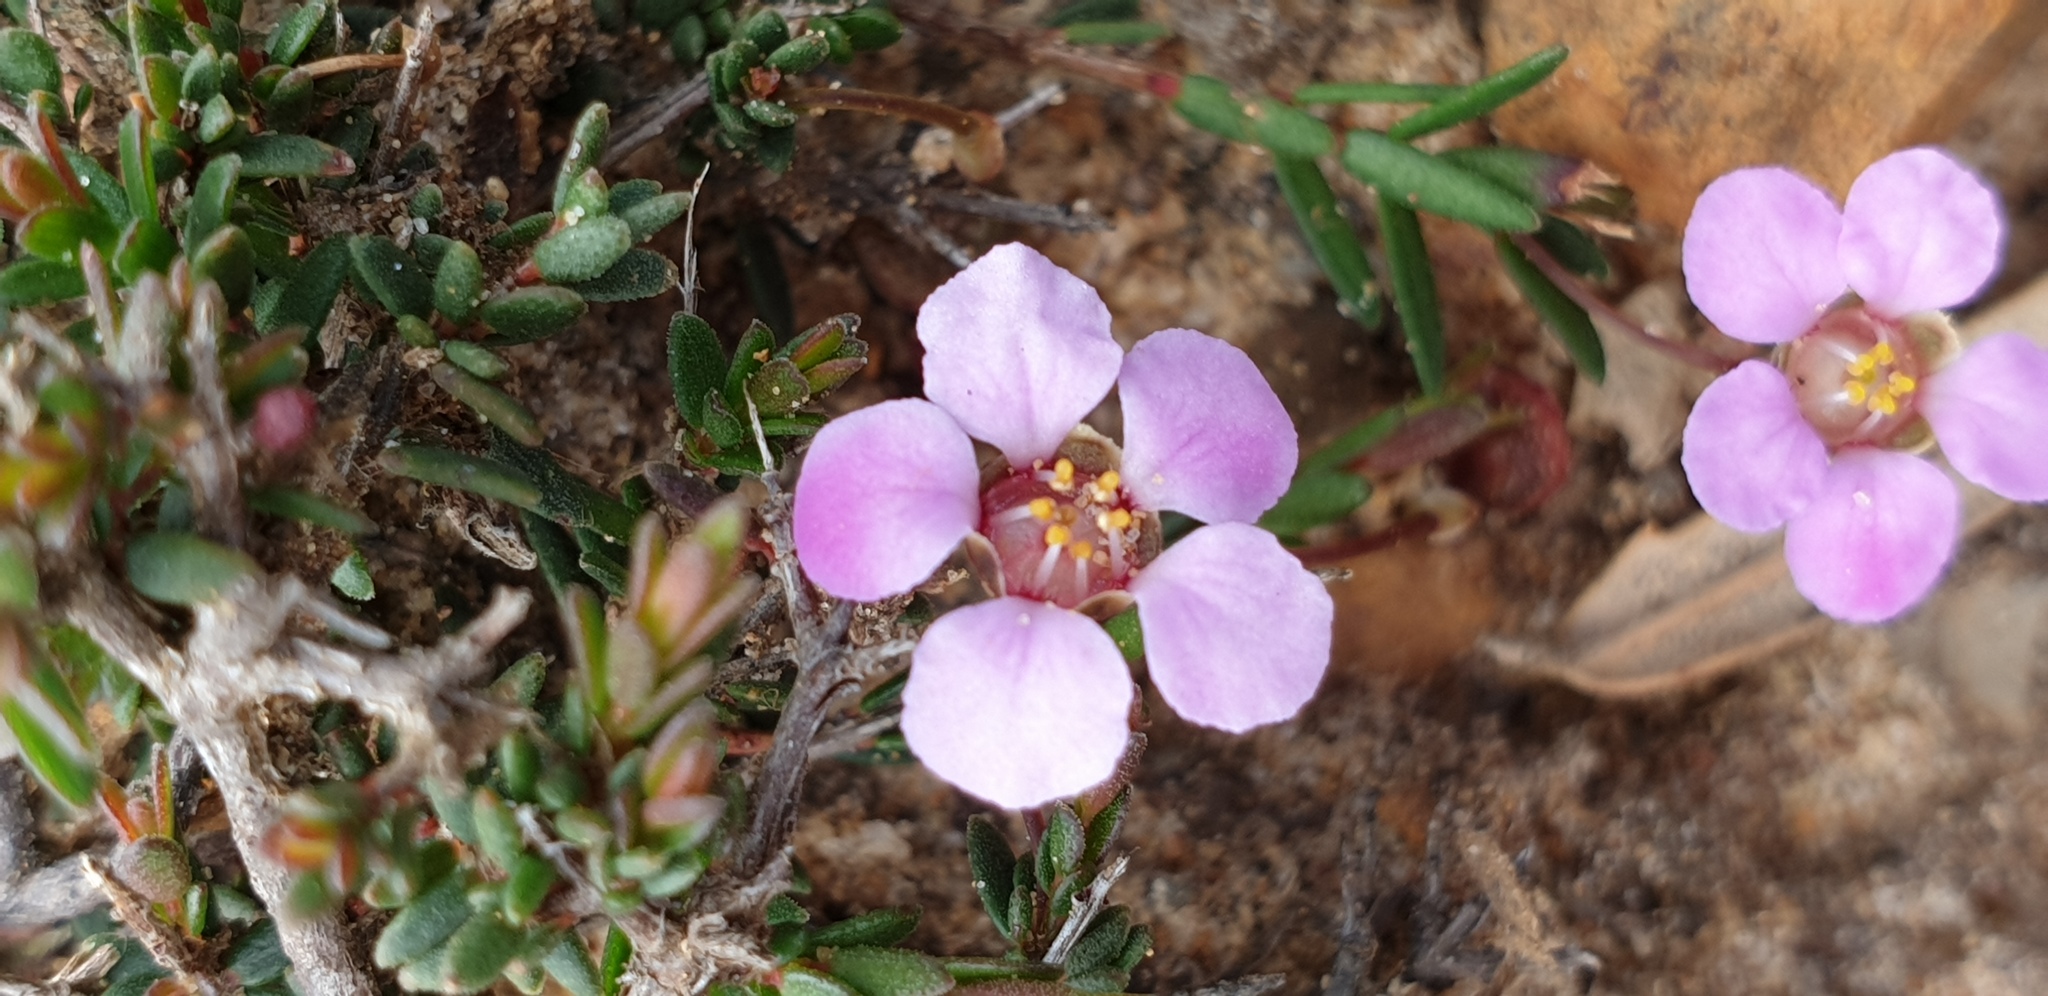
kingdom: Plantae
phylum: Tracheophyta
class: Magnoliopsida
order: Myrtales
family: Myrtaceae
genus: Euryomyrtus
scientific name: Euryomyrtus ramosissima
